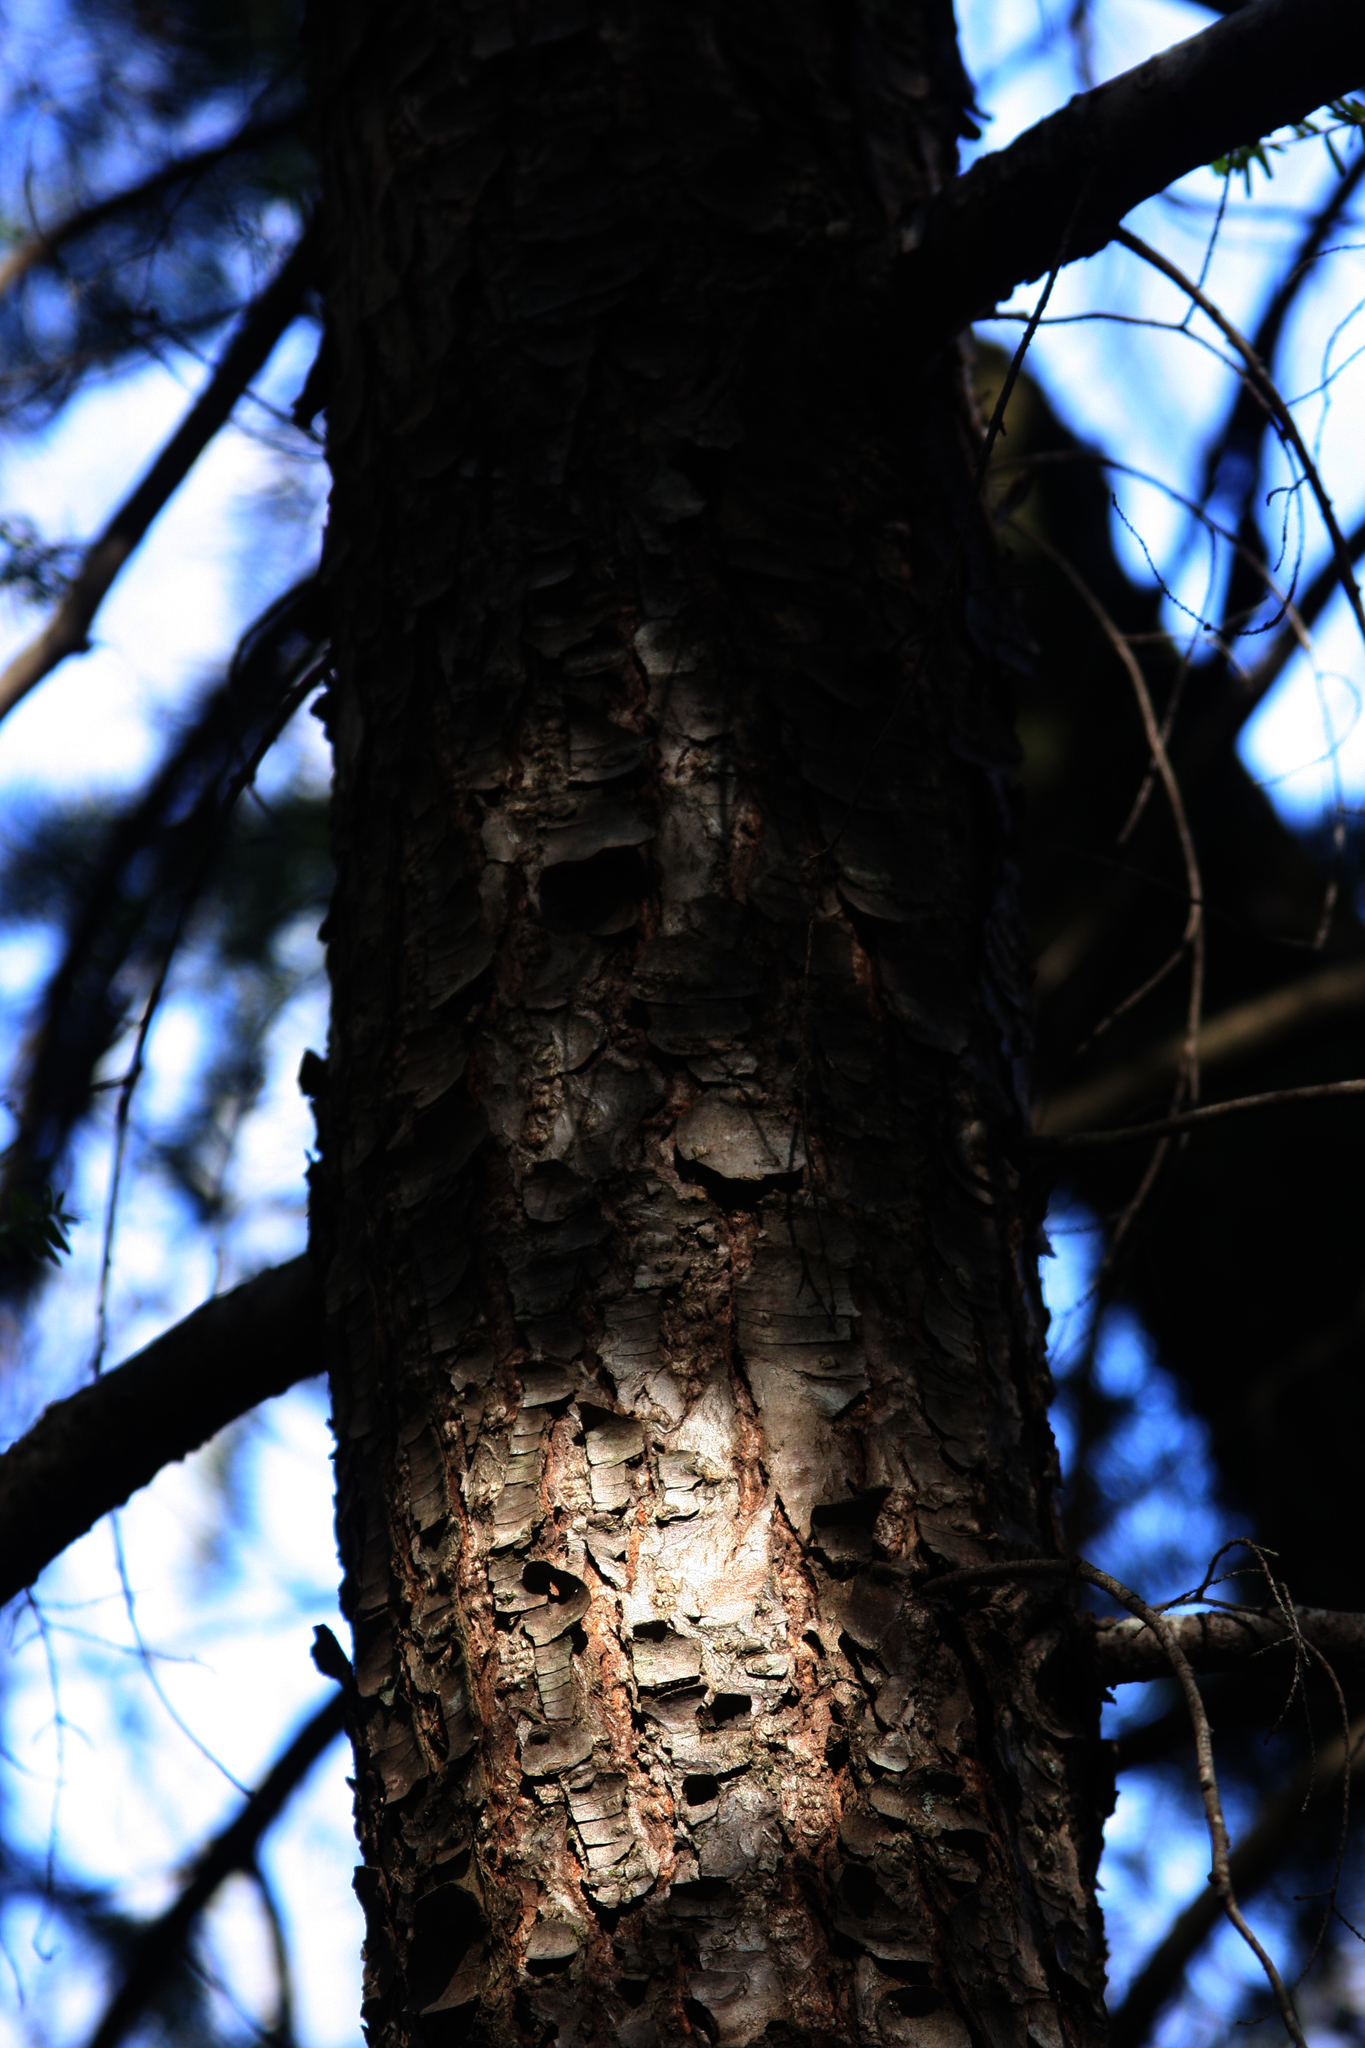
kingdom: Plantae
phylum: Tracheophyta
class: Pinopsida
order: Pinales
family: Pinaceae
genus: Tsuga
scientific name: Tsuga canadensis
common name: Eastern hemlock
